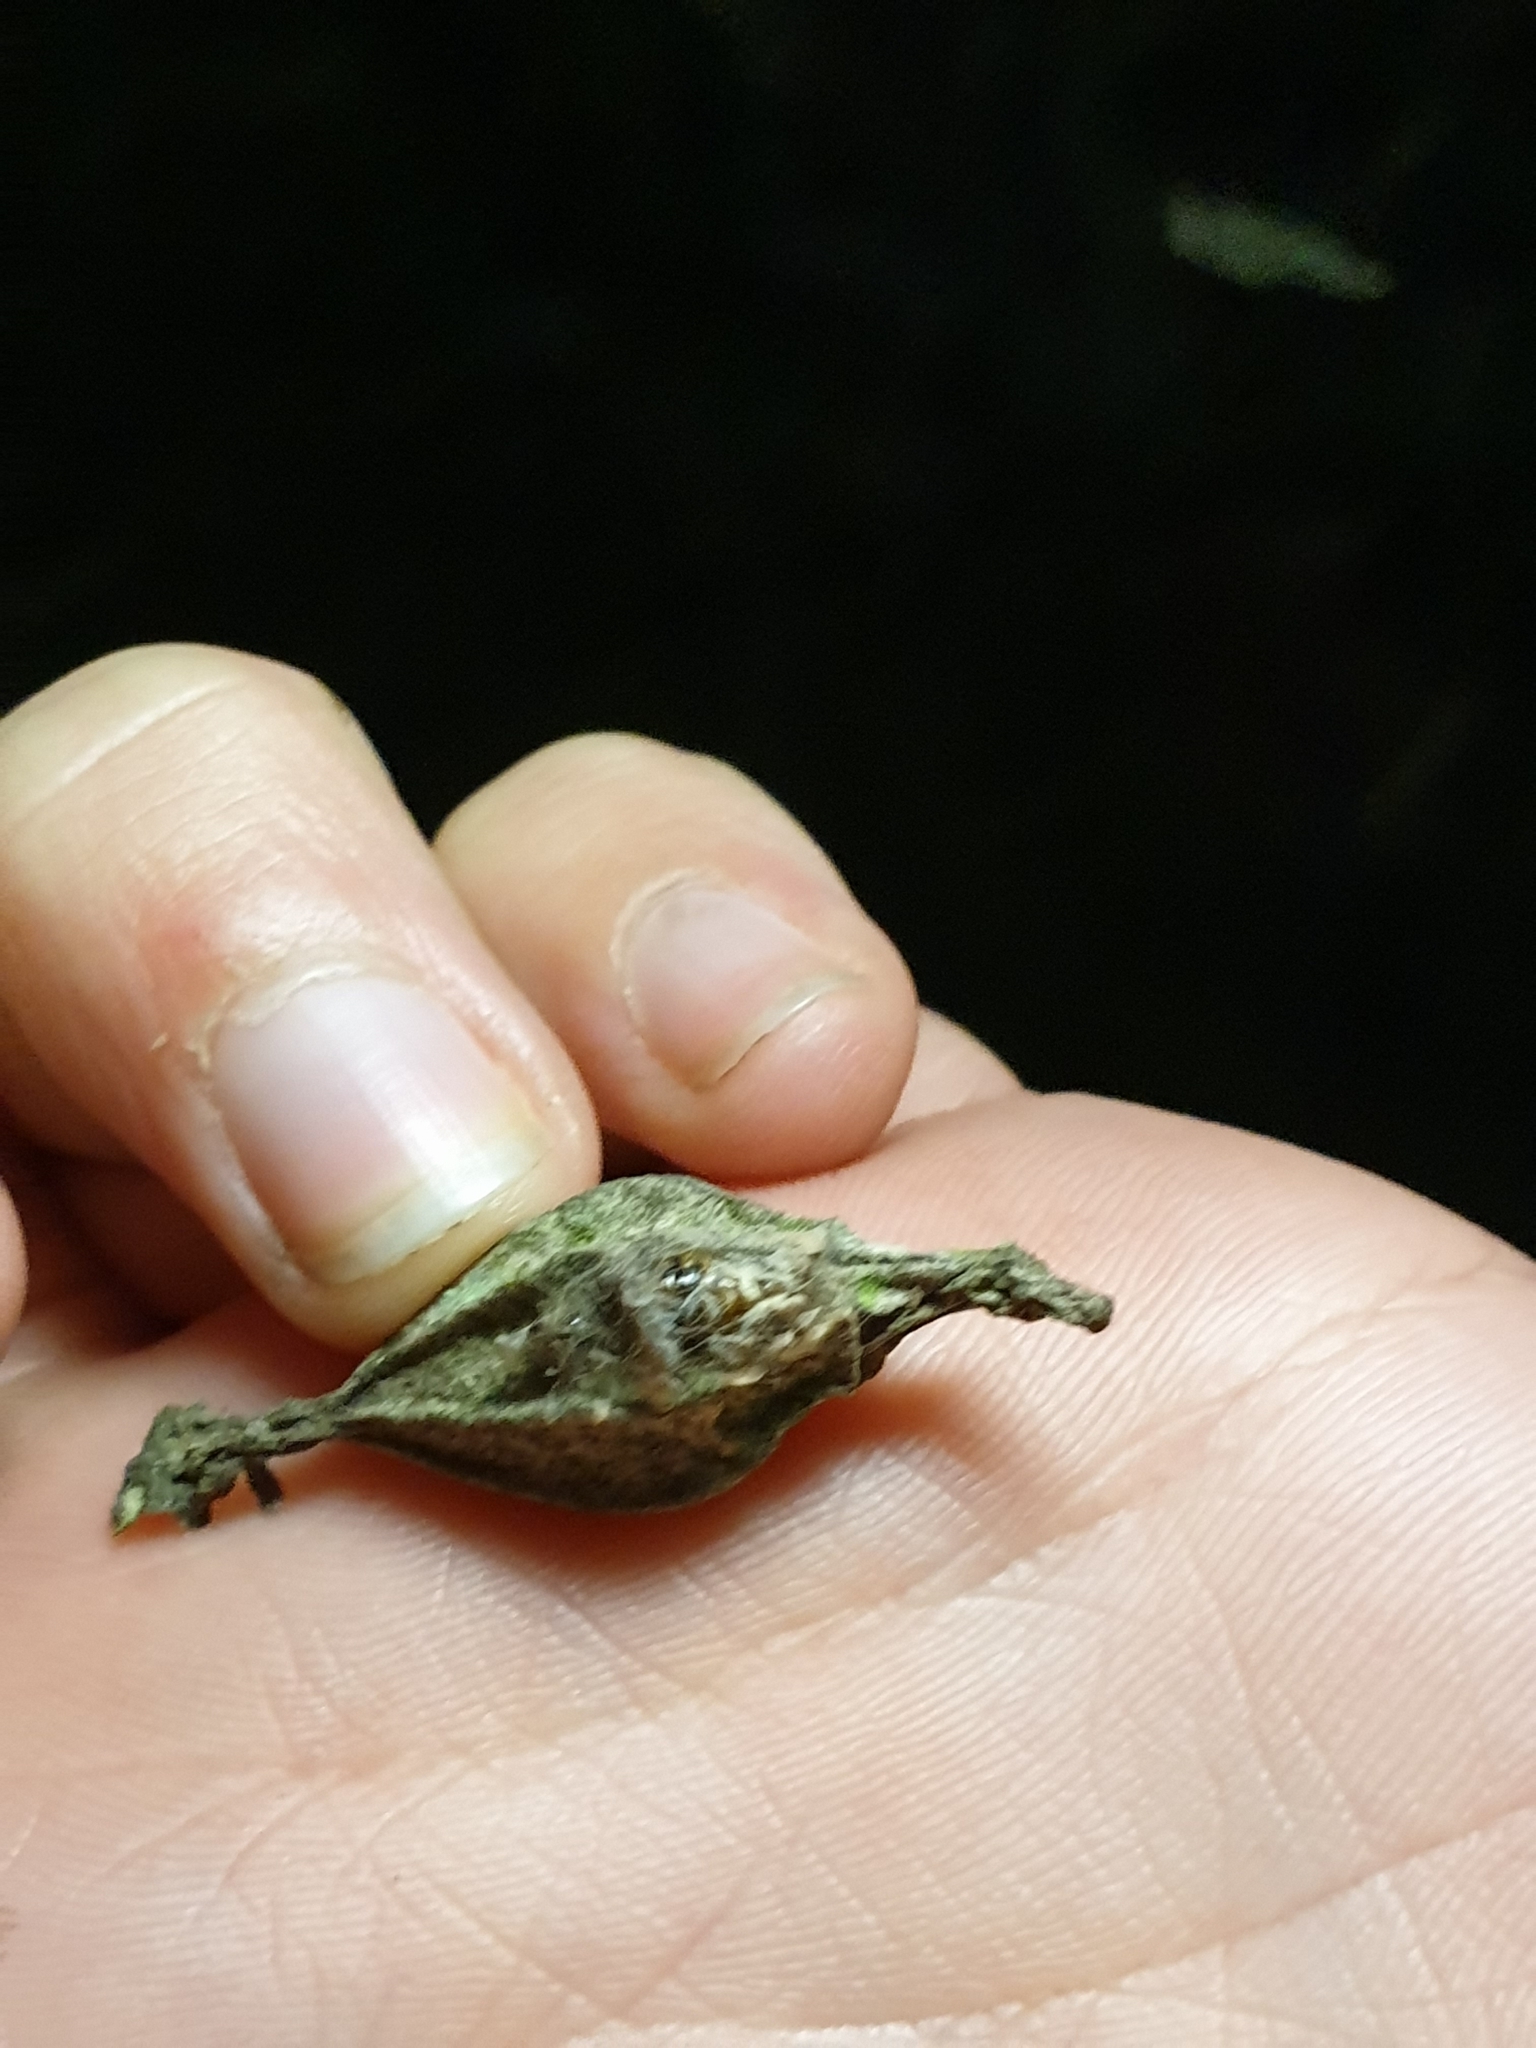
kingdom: Animalia
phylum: Arthropoda
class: Insecta
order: Lepidoptera
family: Psychidae
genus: Hyalarcta
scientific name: Hyalarcta nigrescens
